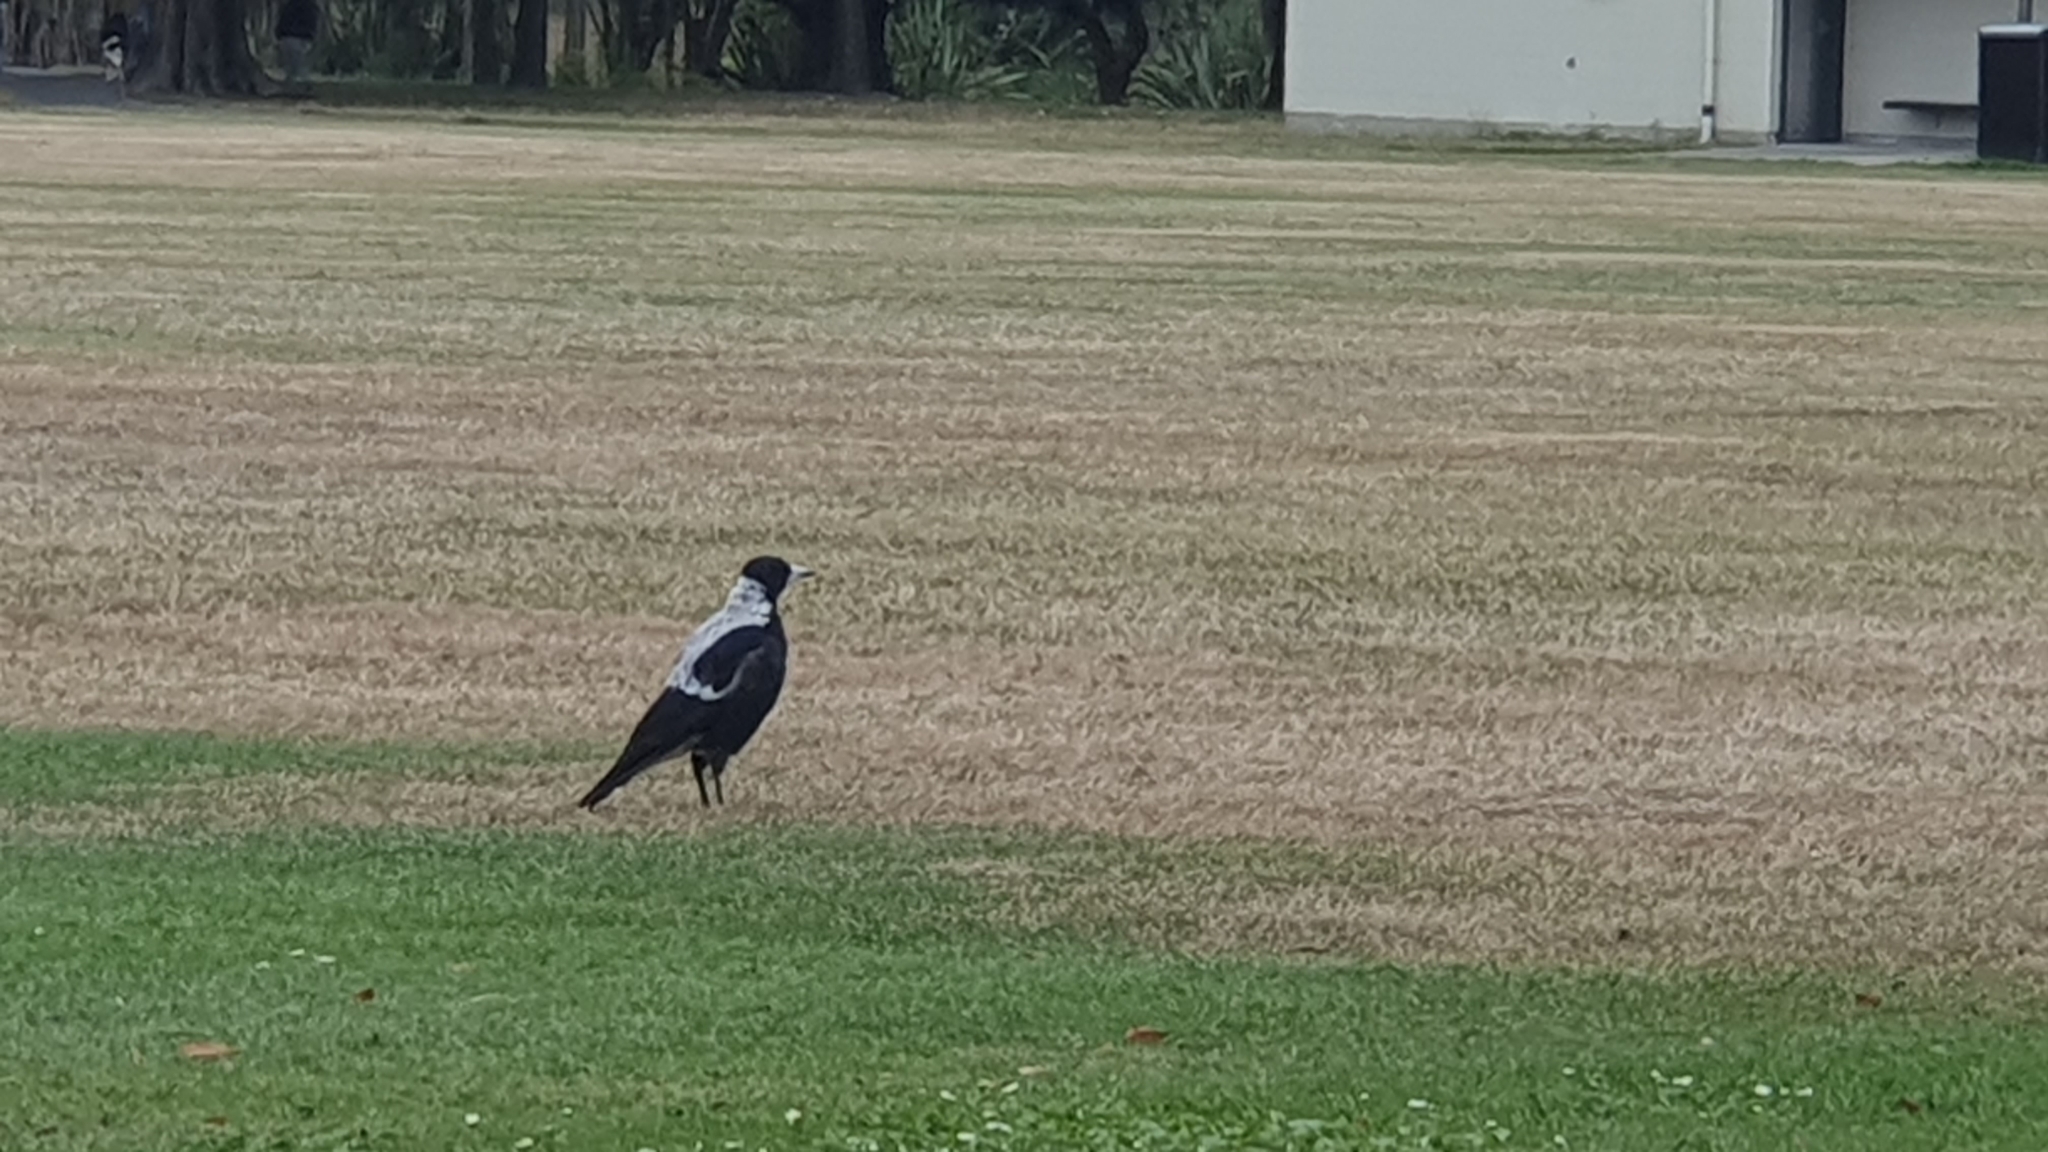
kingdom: Animalia
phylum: Chordata
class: Aves
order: Passeriformes
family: Cracticidae
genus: Gymnorhina
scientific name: Gymnorhina tibicen
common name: Australian magpie
